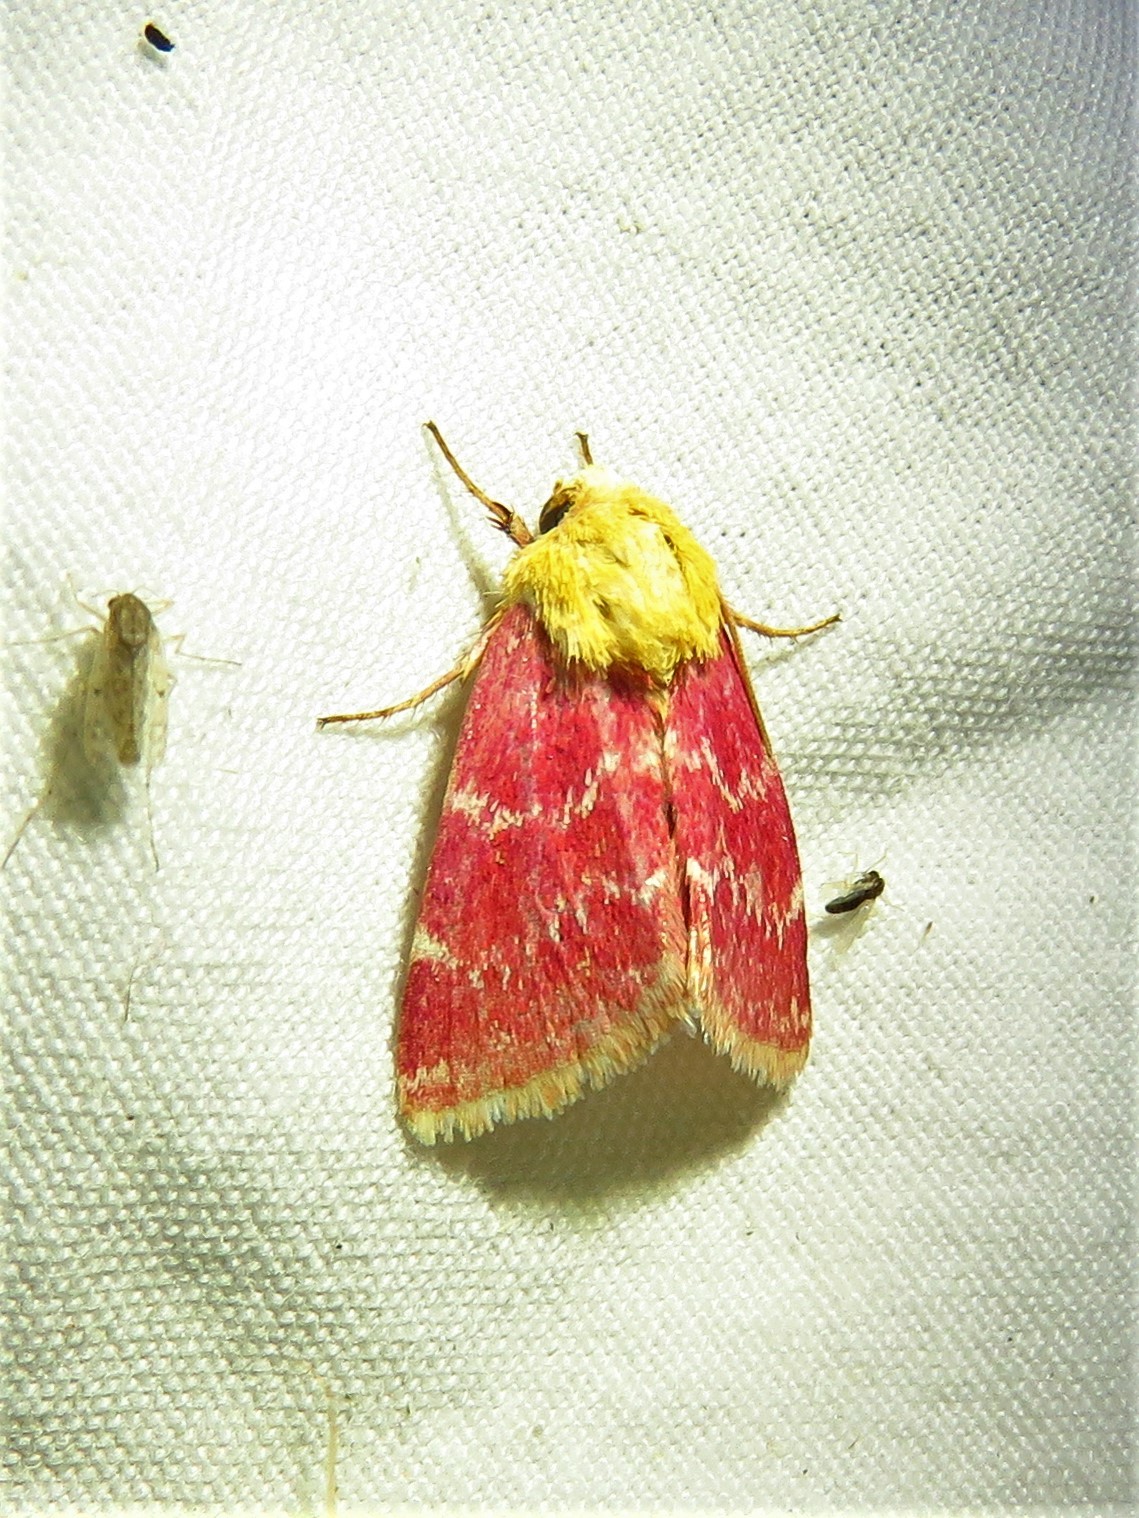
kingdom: Animalia
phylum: Arthropoda
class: Insecta
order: Lepidoptera
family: Noctuidae
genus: Schinia
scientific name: Schinia volupia
